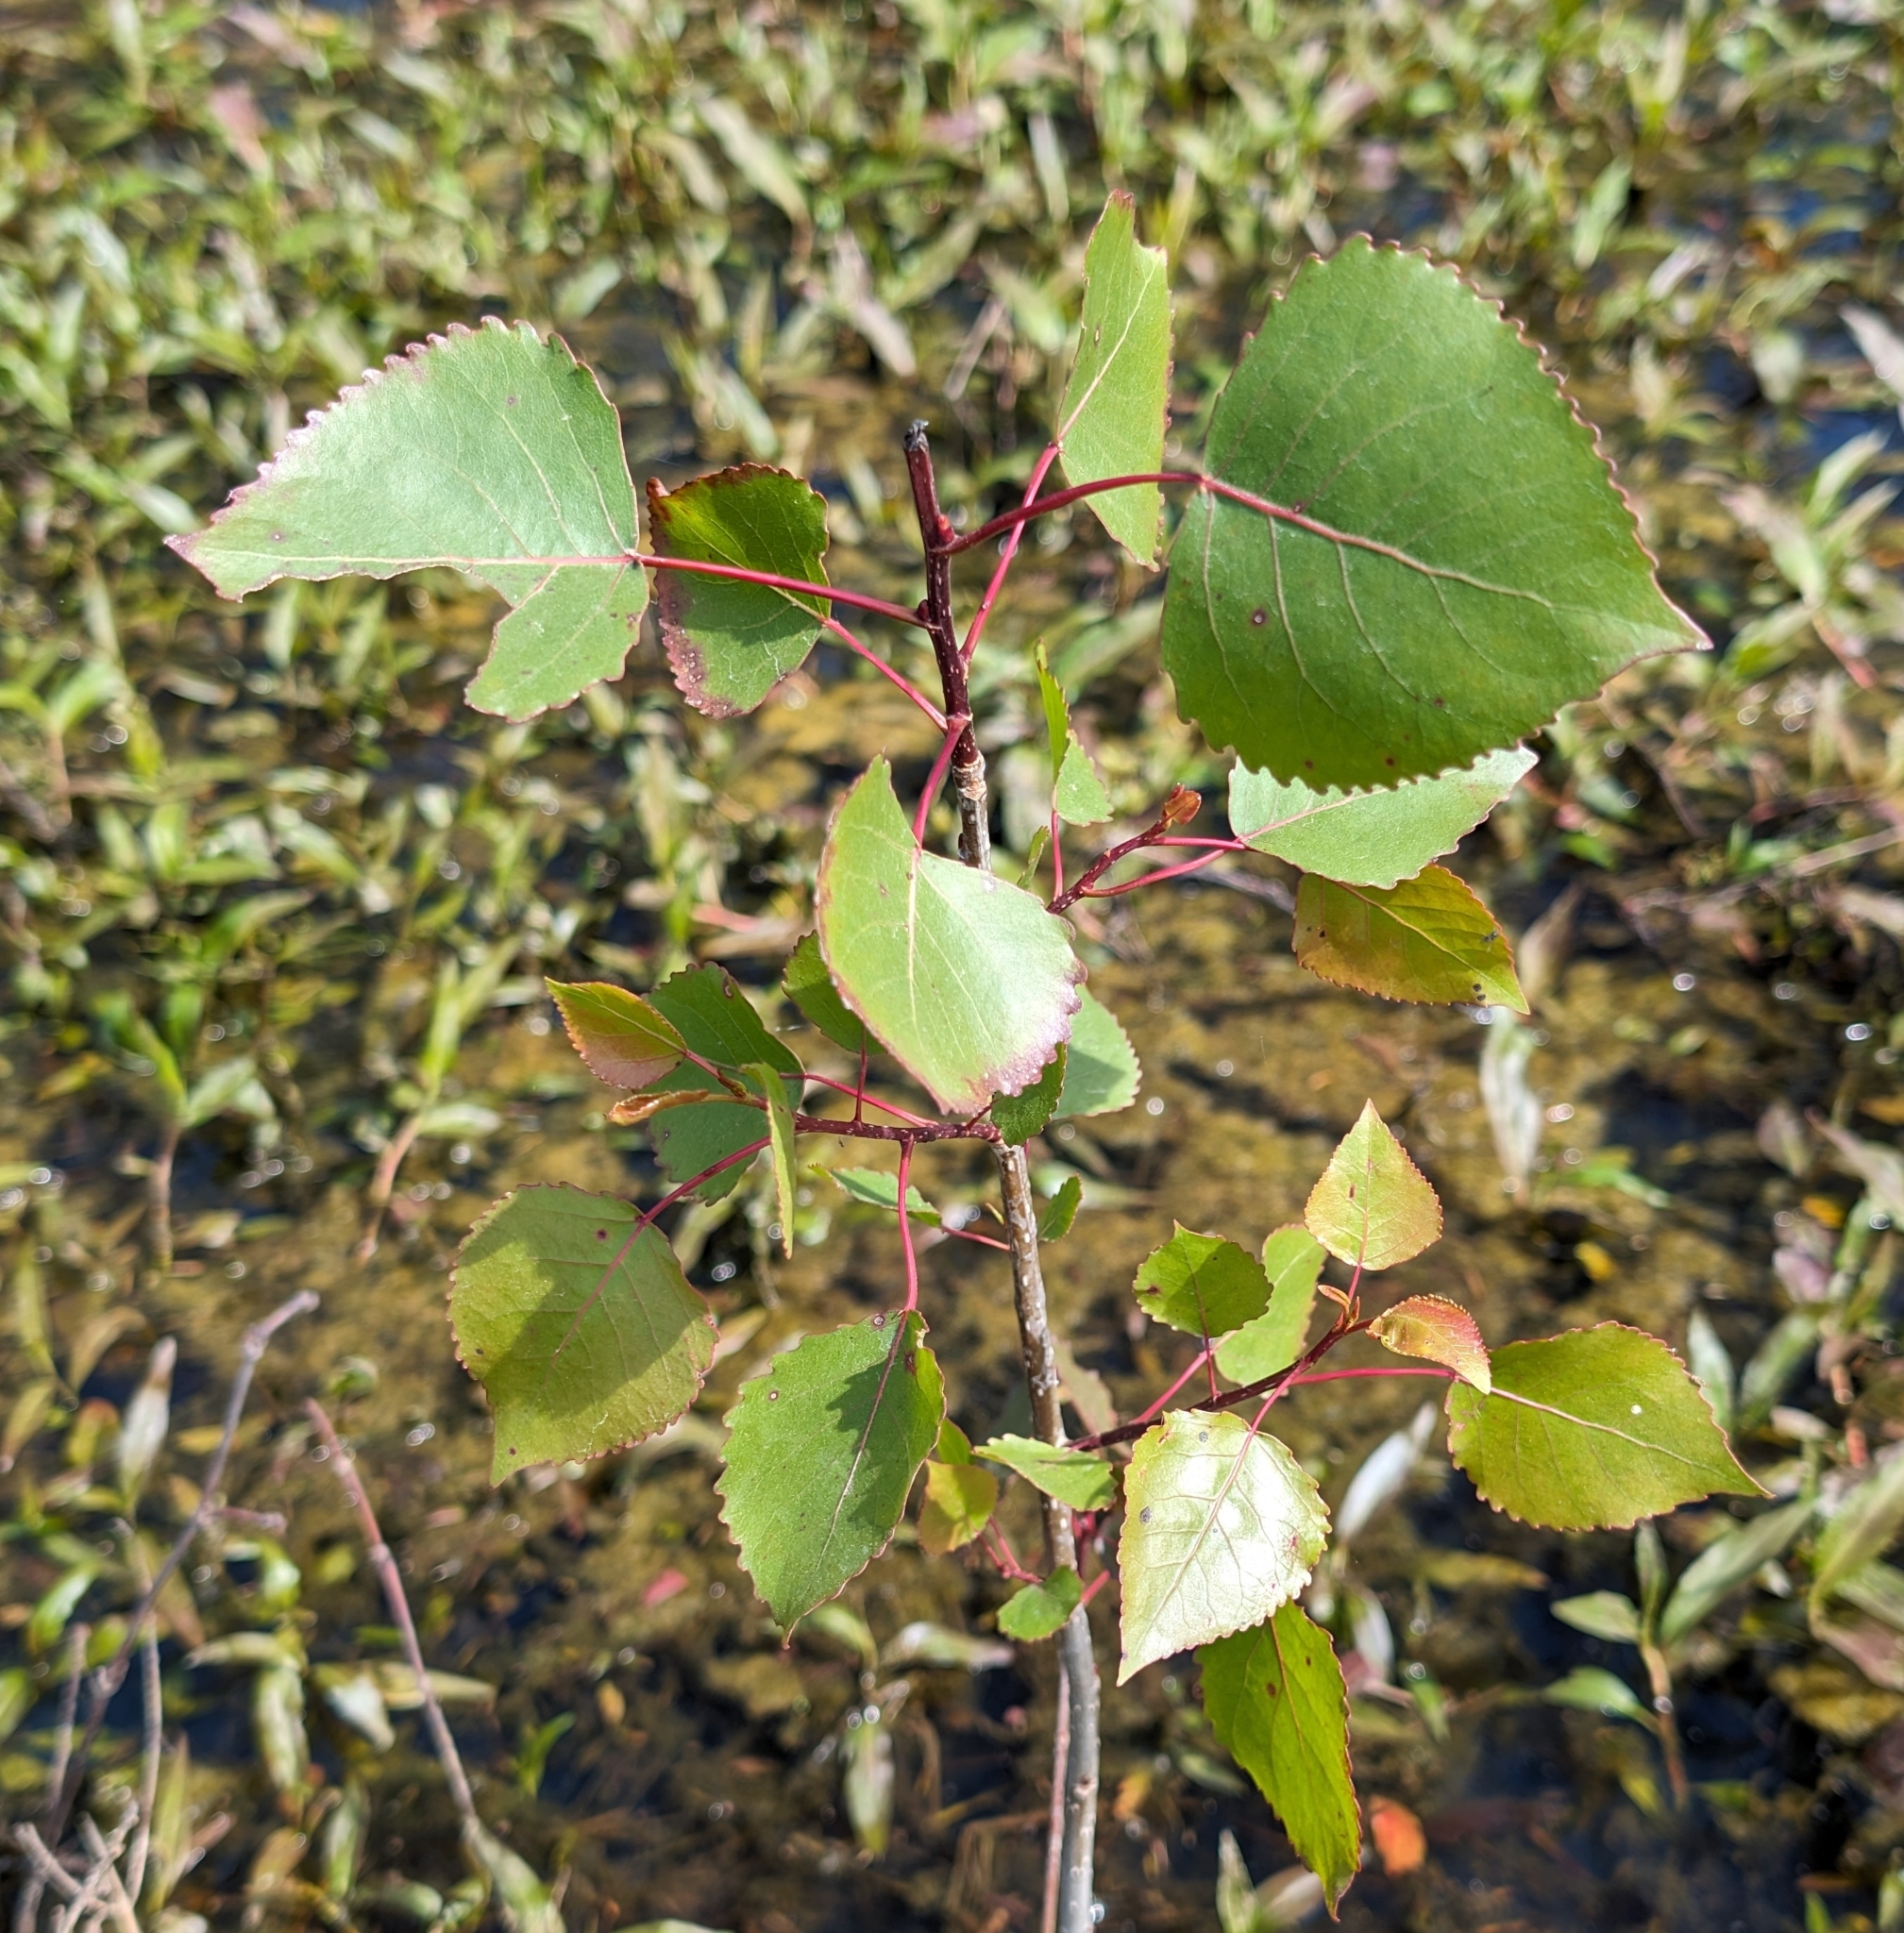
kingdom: Plantae
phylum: Tracheophyta
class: Magnoliopsida
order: Malpighiales
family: Salicaceae
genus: Populus
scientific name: Populus deltoides
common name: Eastern cottonwood
